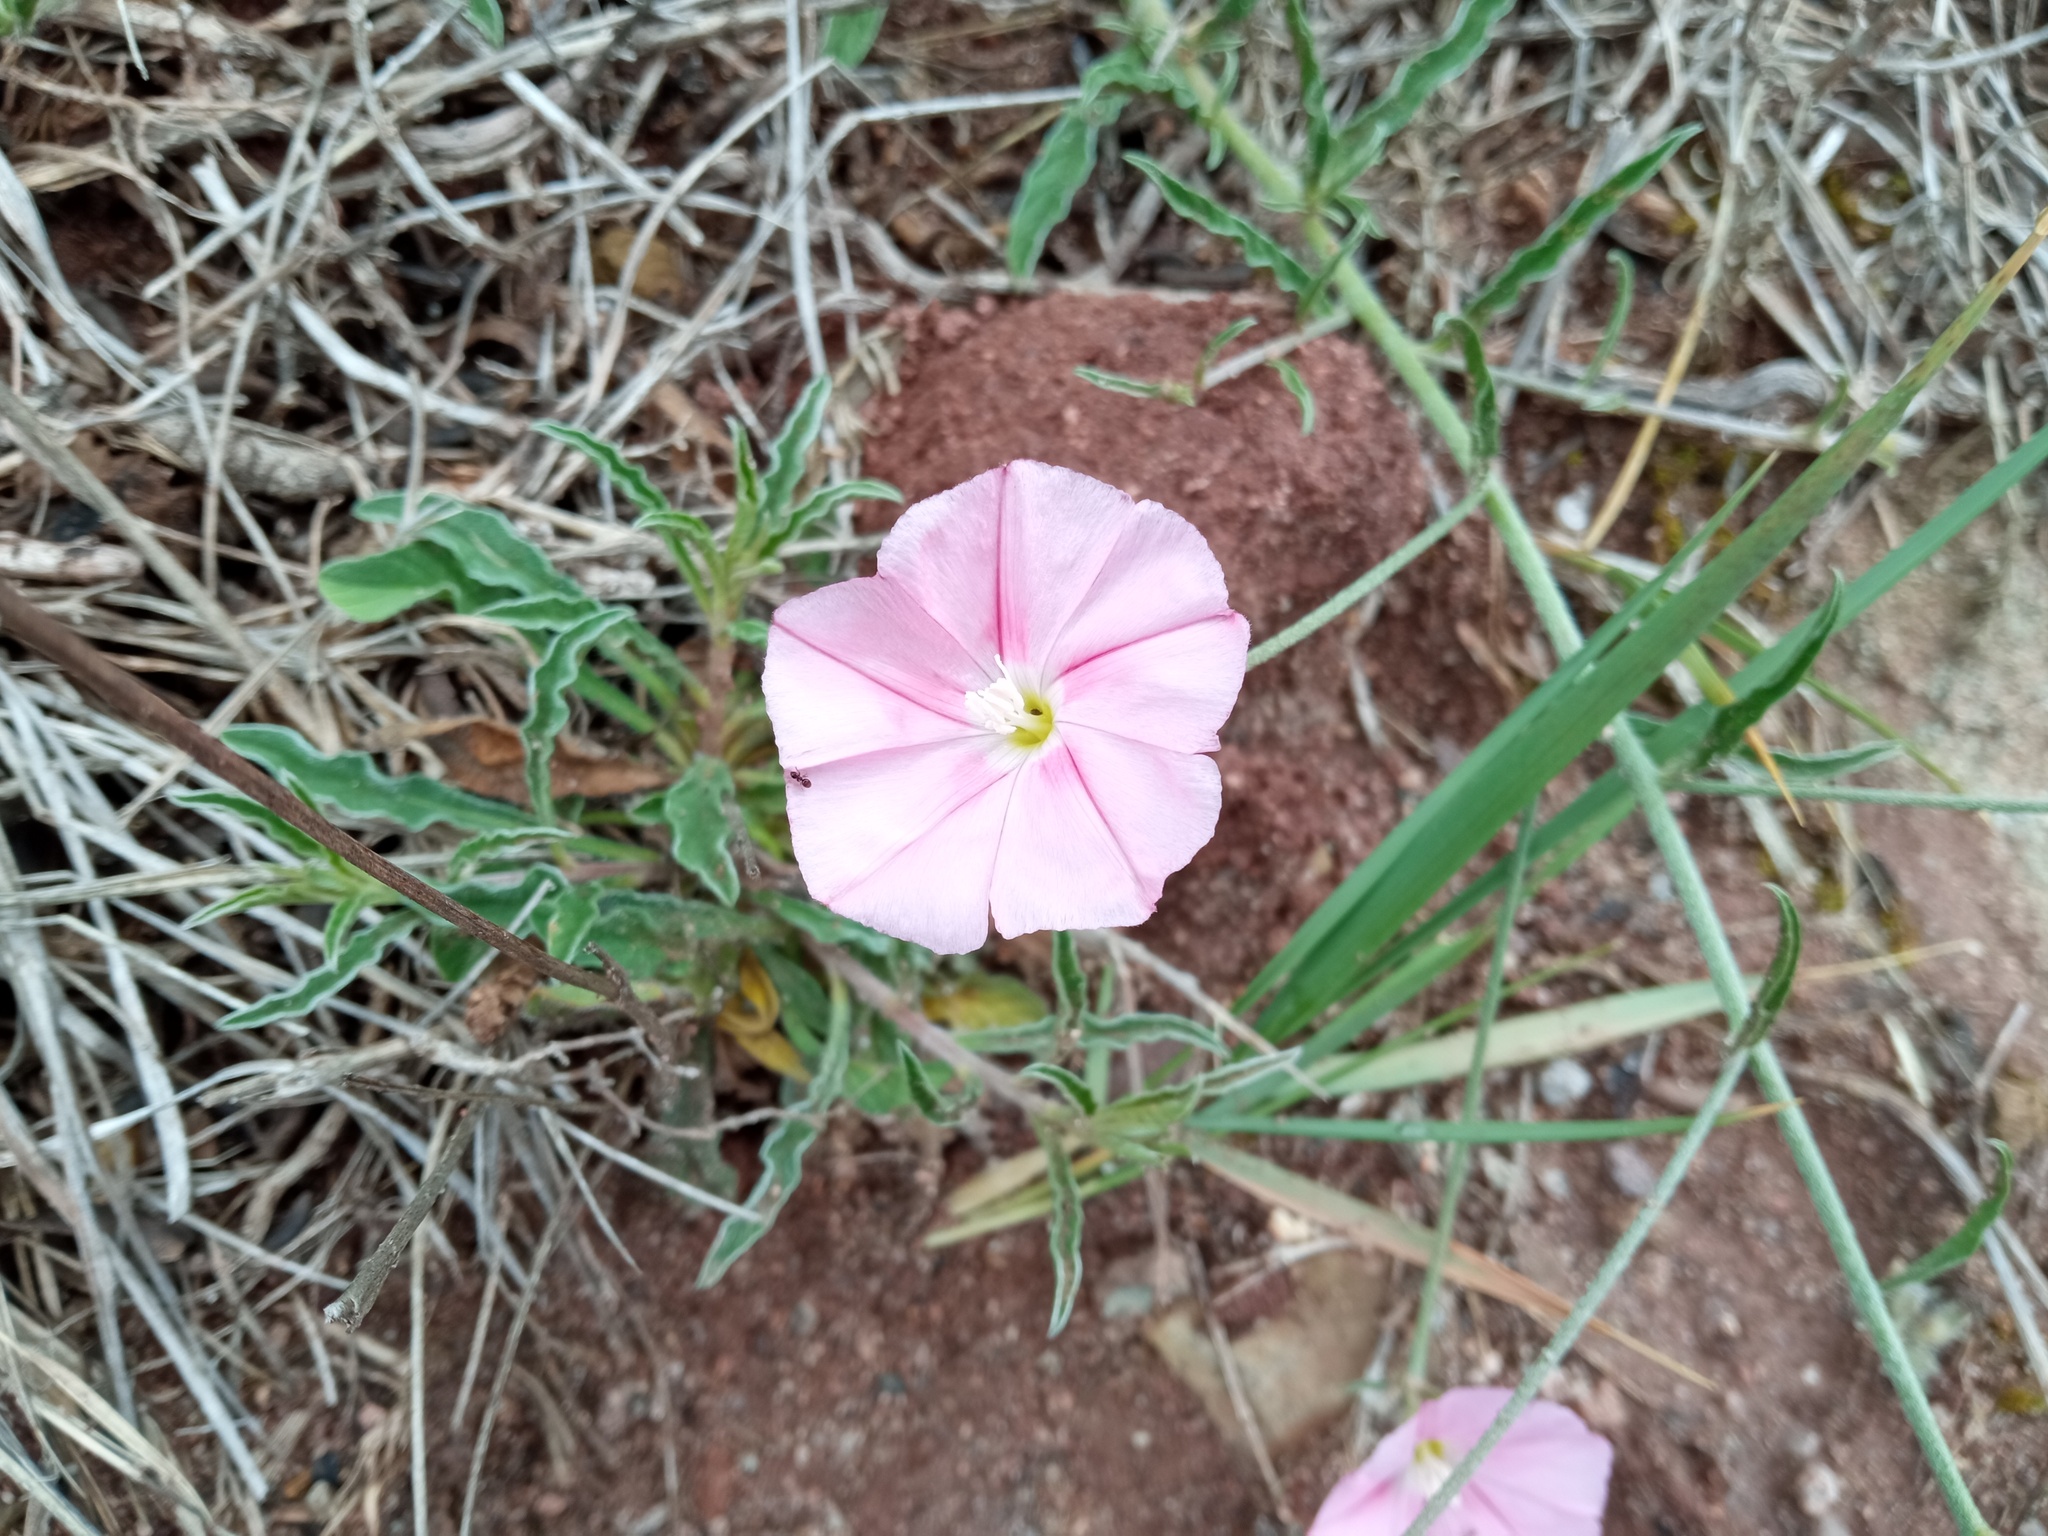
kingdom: Plantae
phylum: Tracheophyta
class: Magnoliopsida
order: Solanales
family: Convolvulaceae
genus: Convolvulus
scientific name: Convolvulus cantabrica
